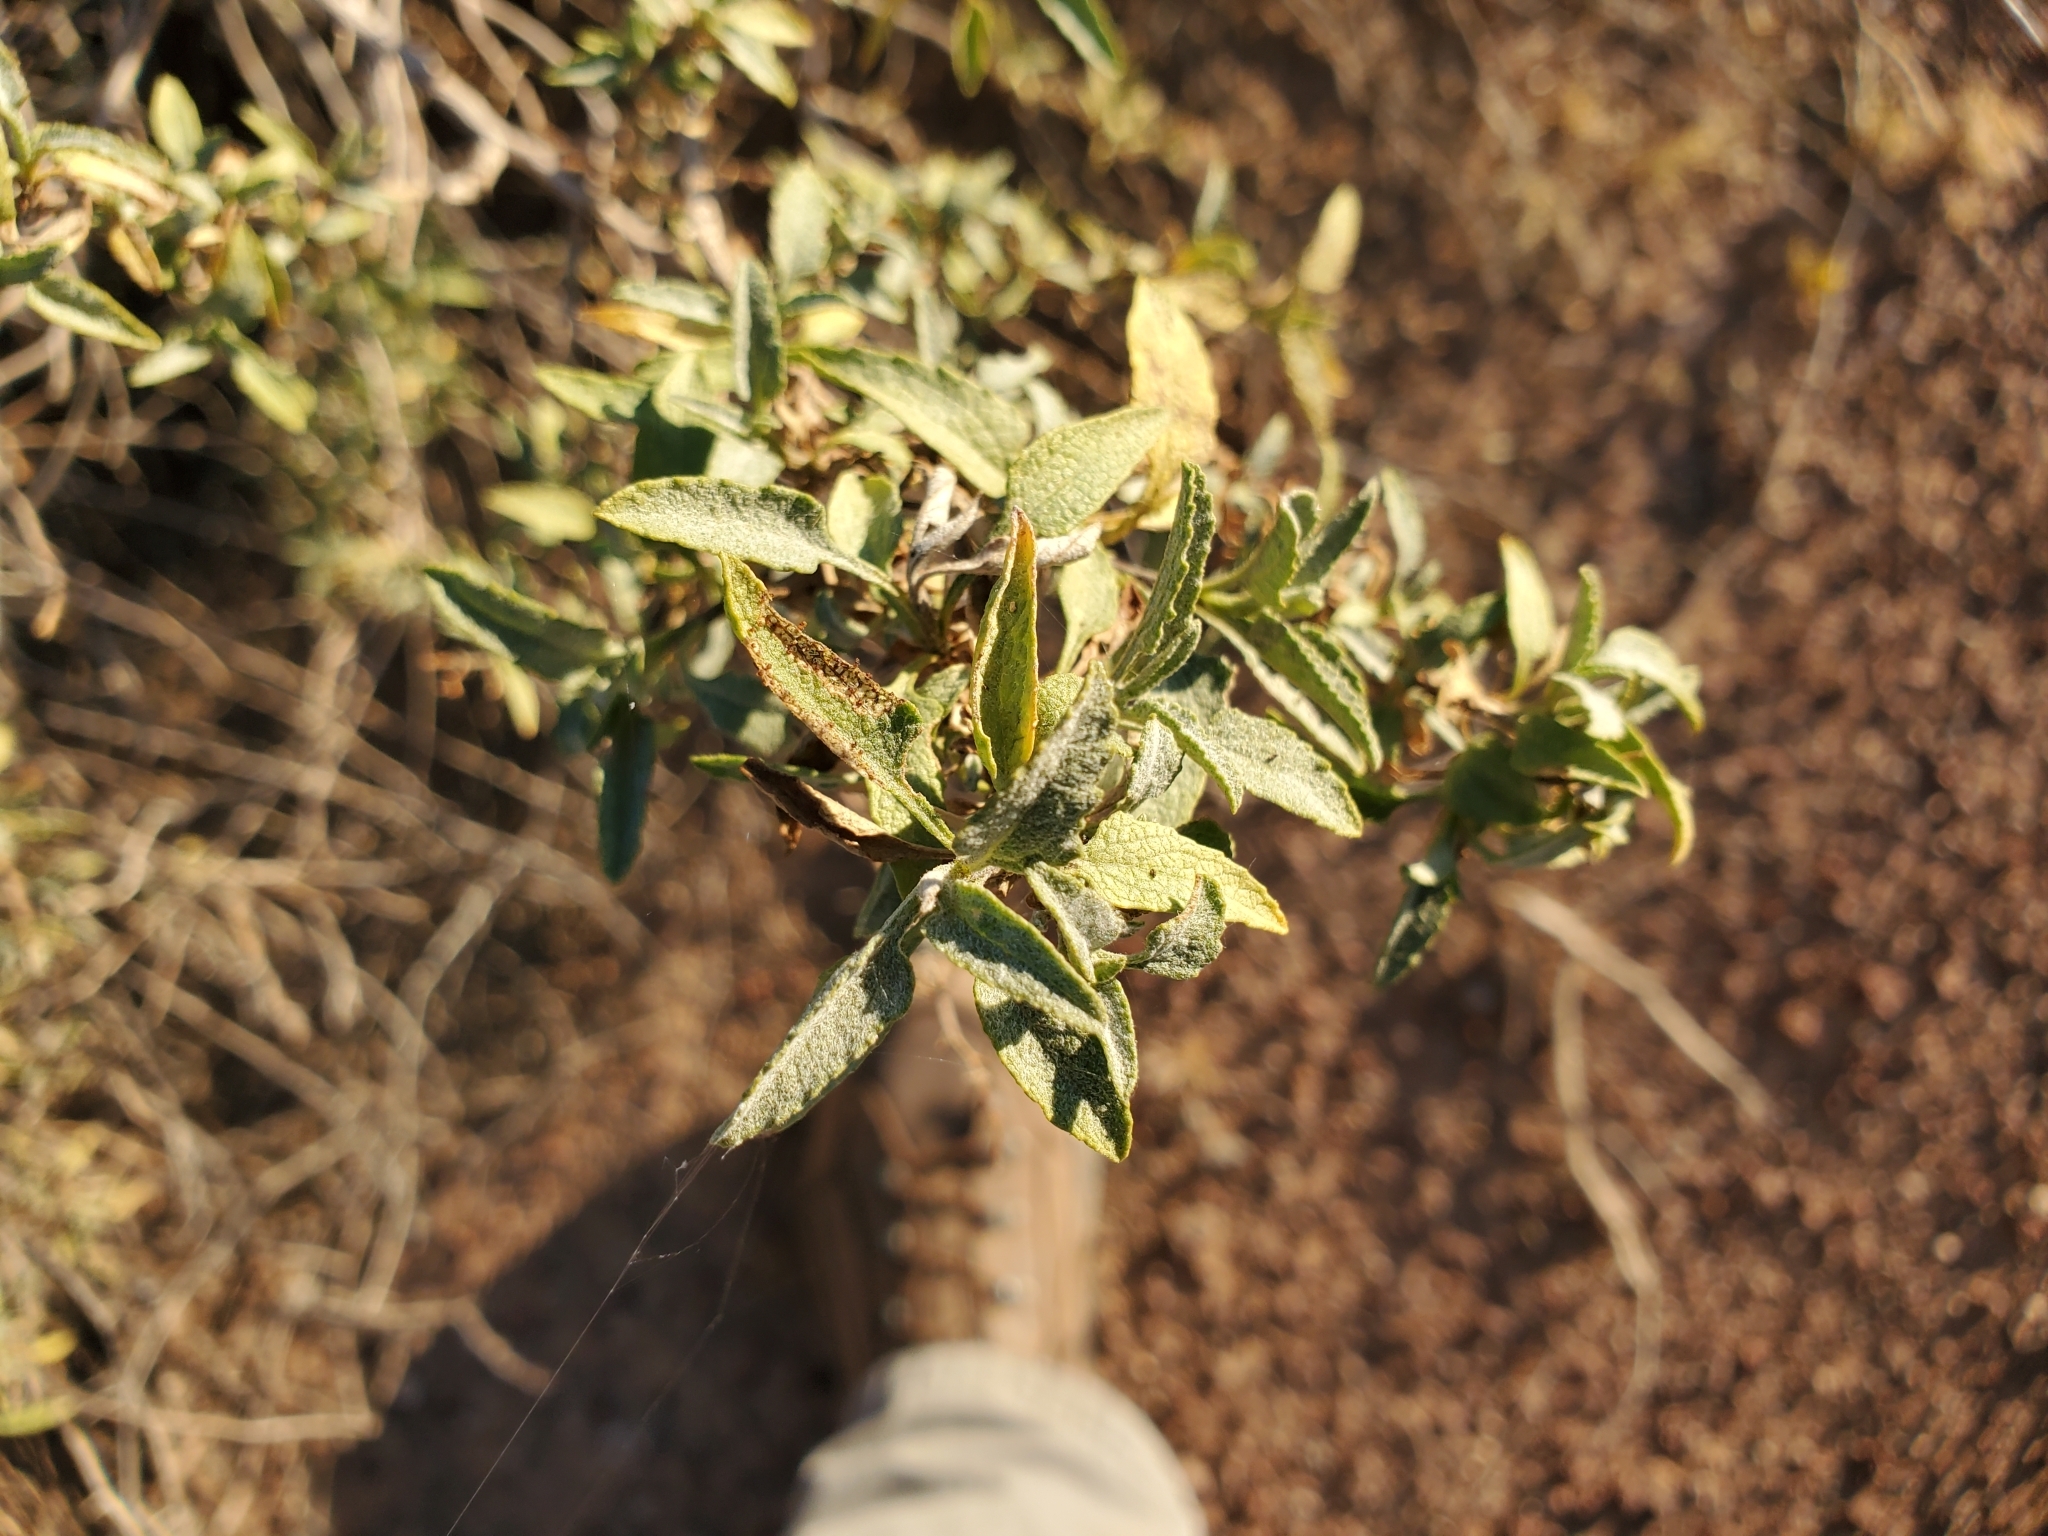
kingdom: Plantae
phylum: Tracheophyta
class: Magnoliopsida
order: Asterales
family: Asteraceae
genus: Ambrosia
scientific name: Ambrosia deltoidea
